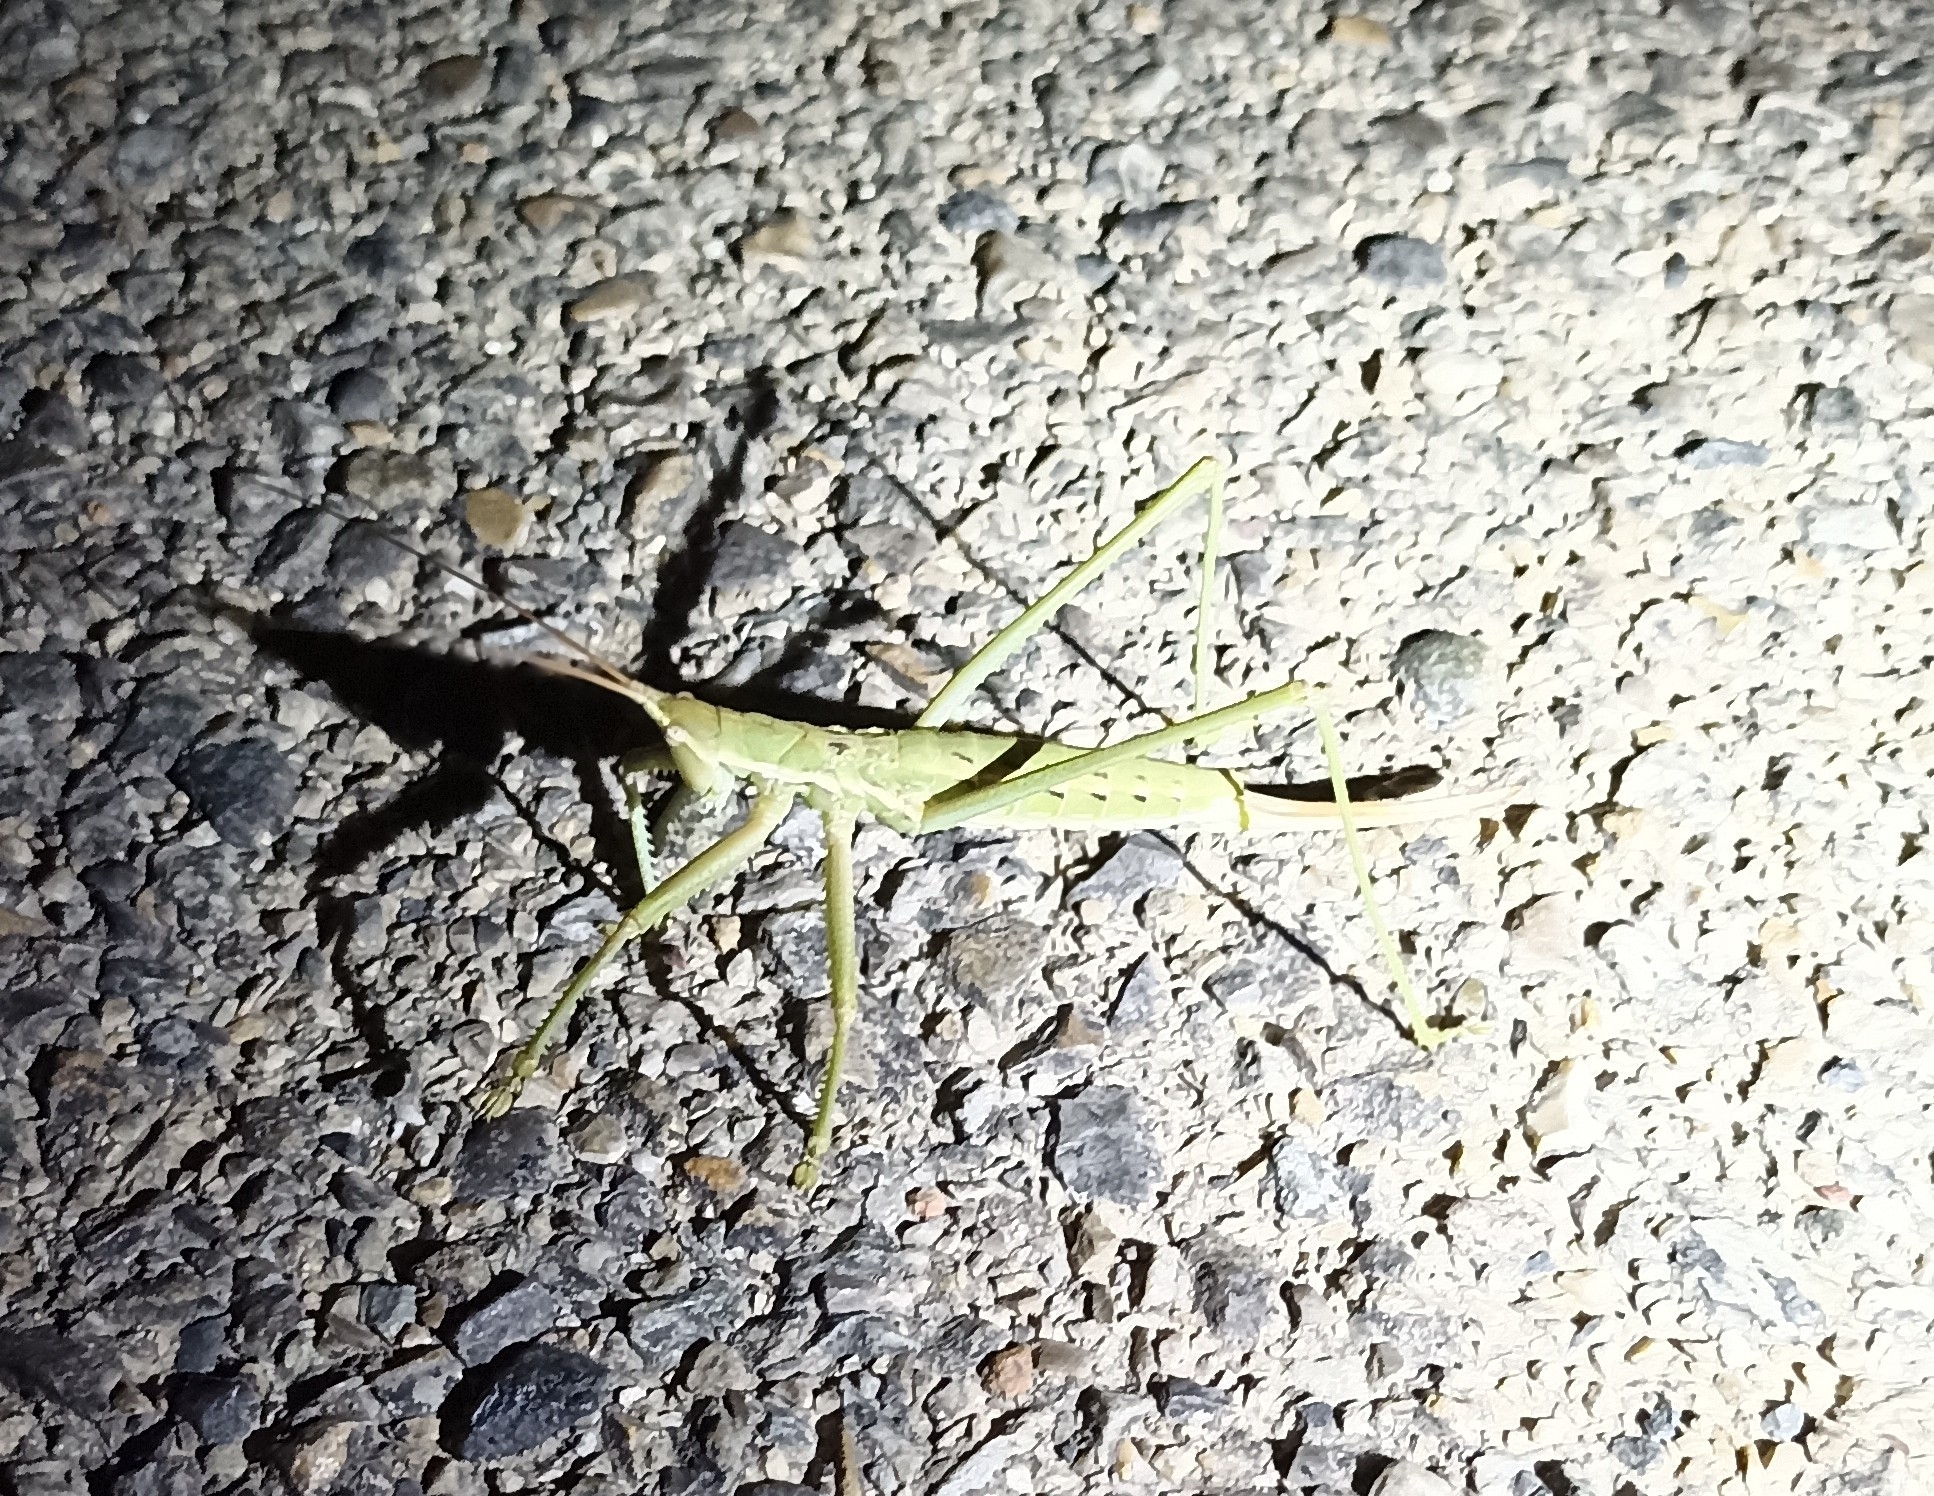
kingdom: Animalia
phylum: Arthropoda
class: Insecta
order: Orthoptera
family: Tettigoniidae
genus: Saga
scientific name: Saga pedo
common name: Common predatory bush-cricket
